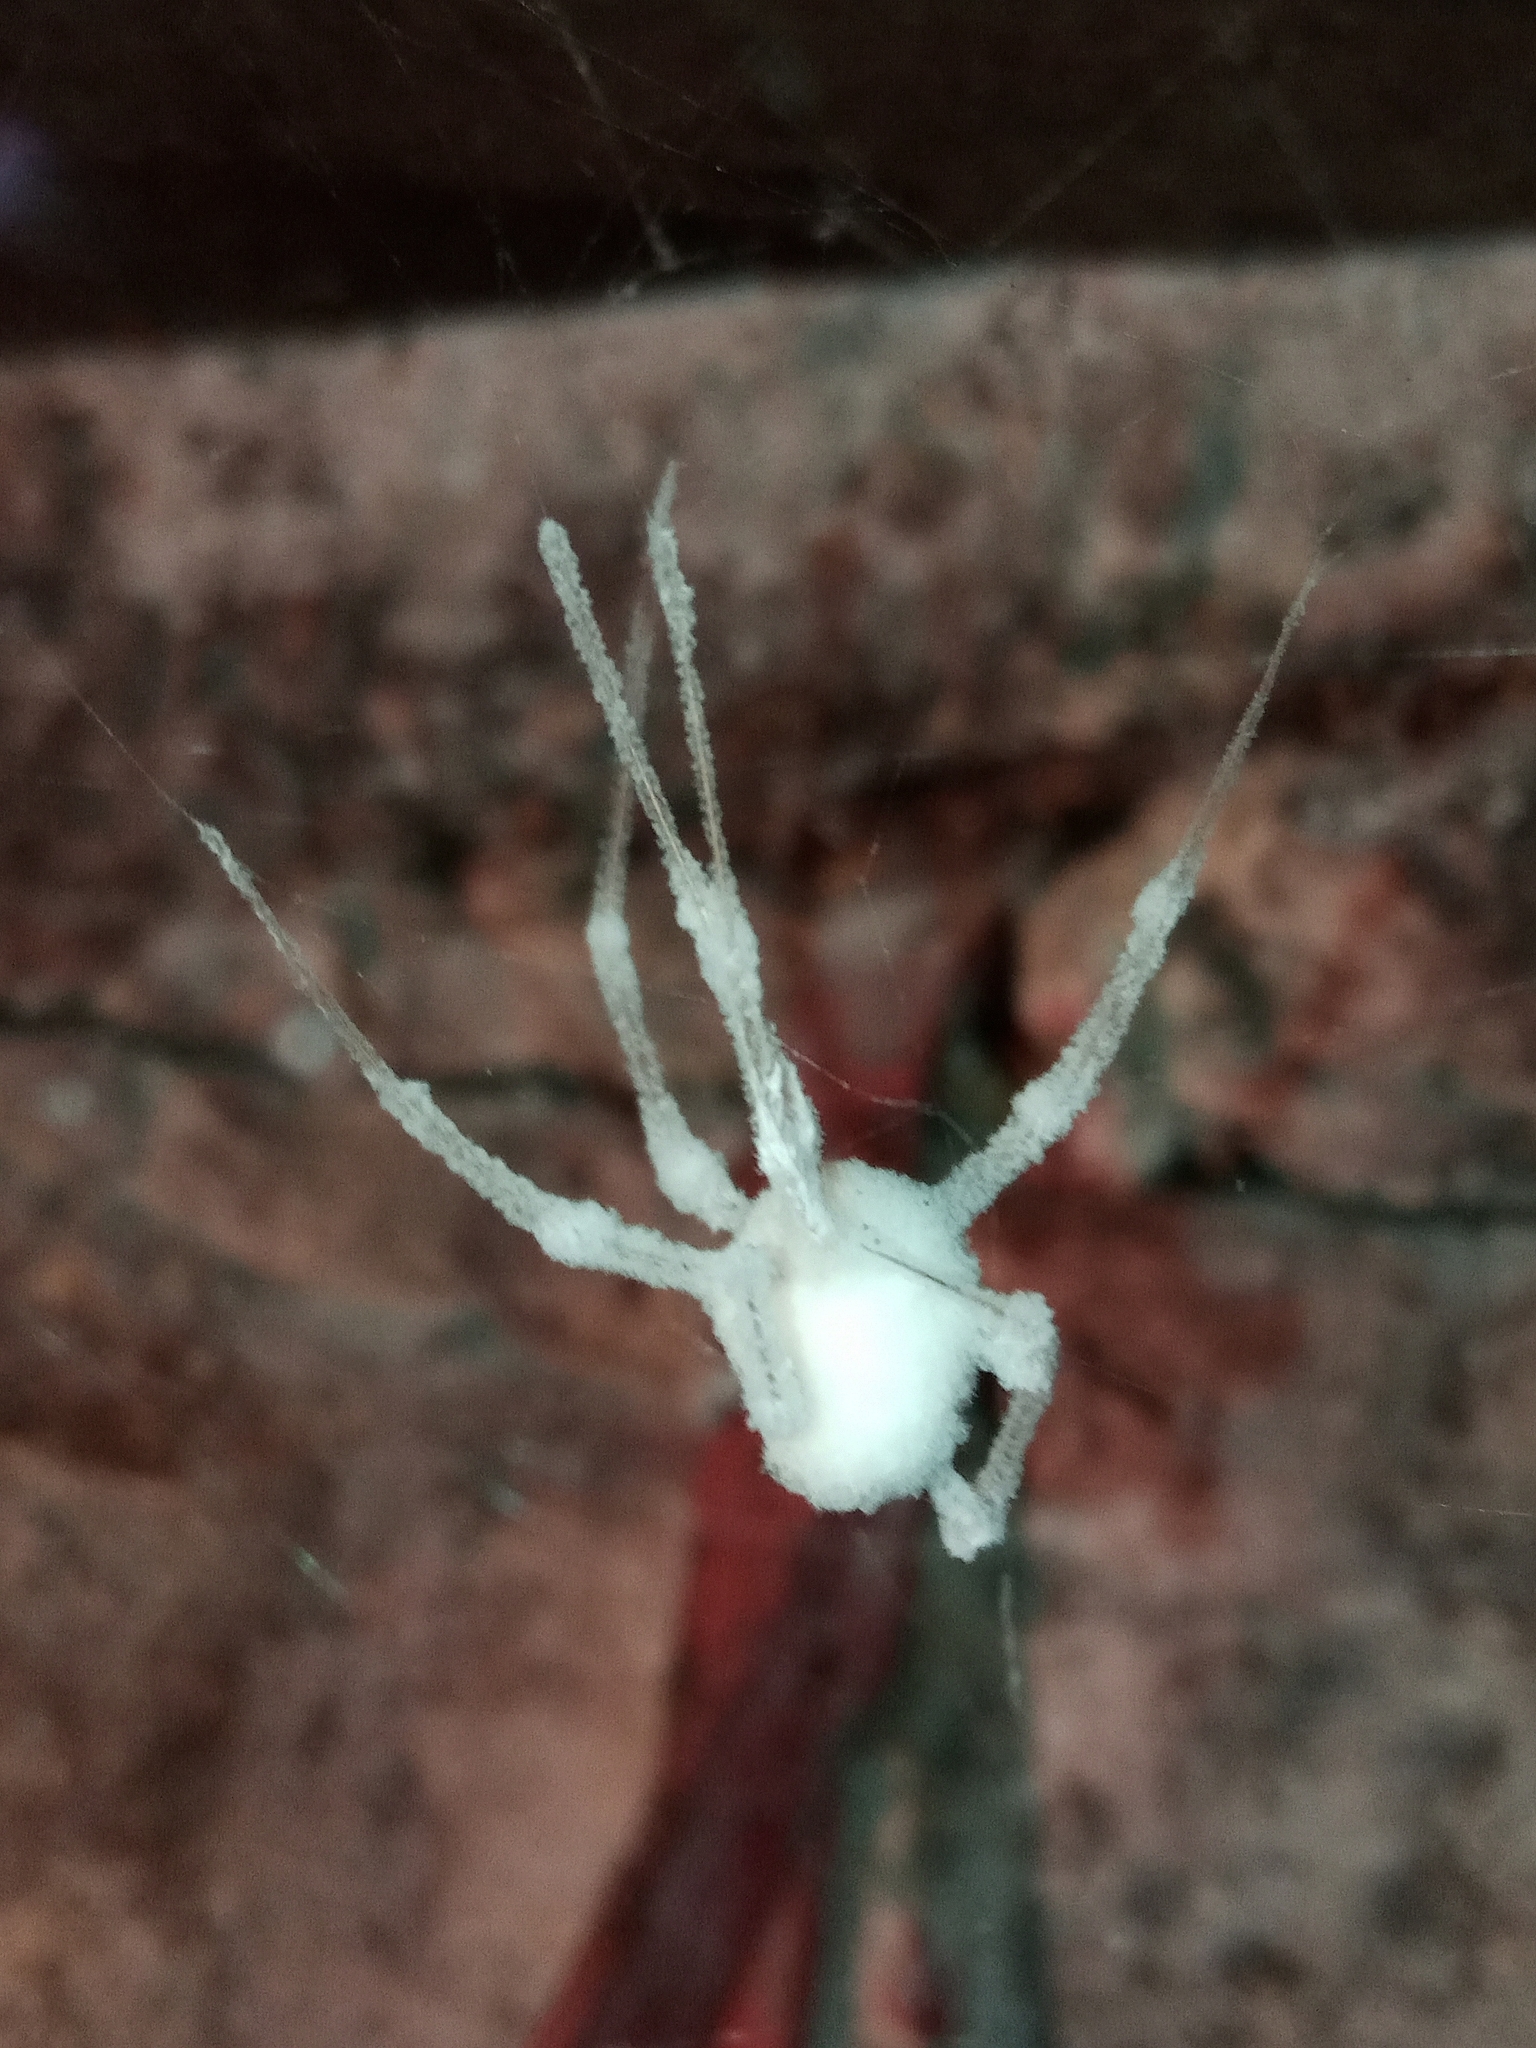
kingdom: Fungi
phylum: Ascomycota
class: Sordariomycetes
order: Hypocreales
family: Cordycipitaceae
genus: Lecanicillium
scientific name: Lecanicillium tenuipes
